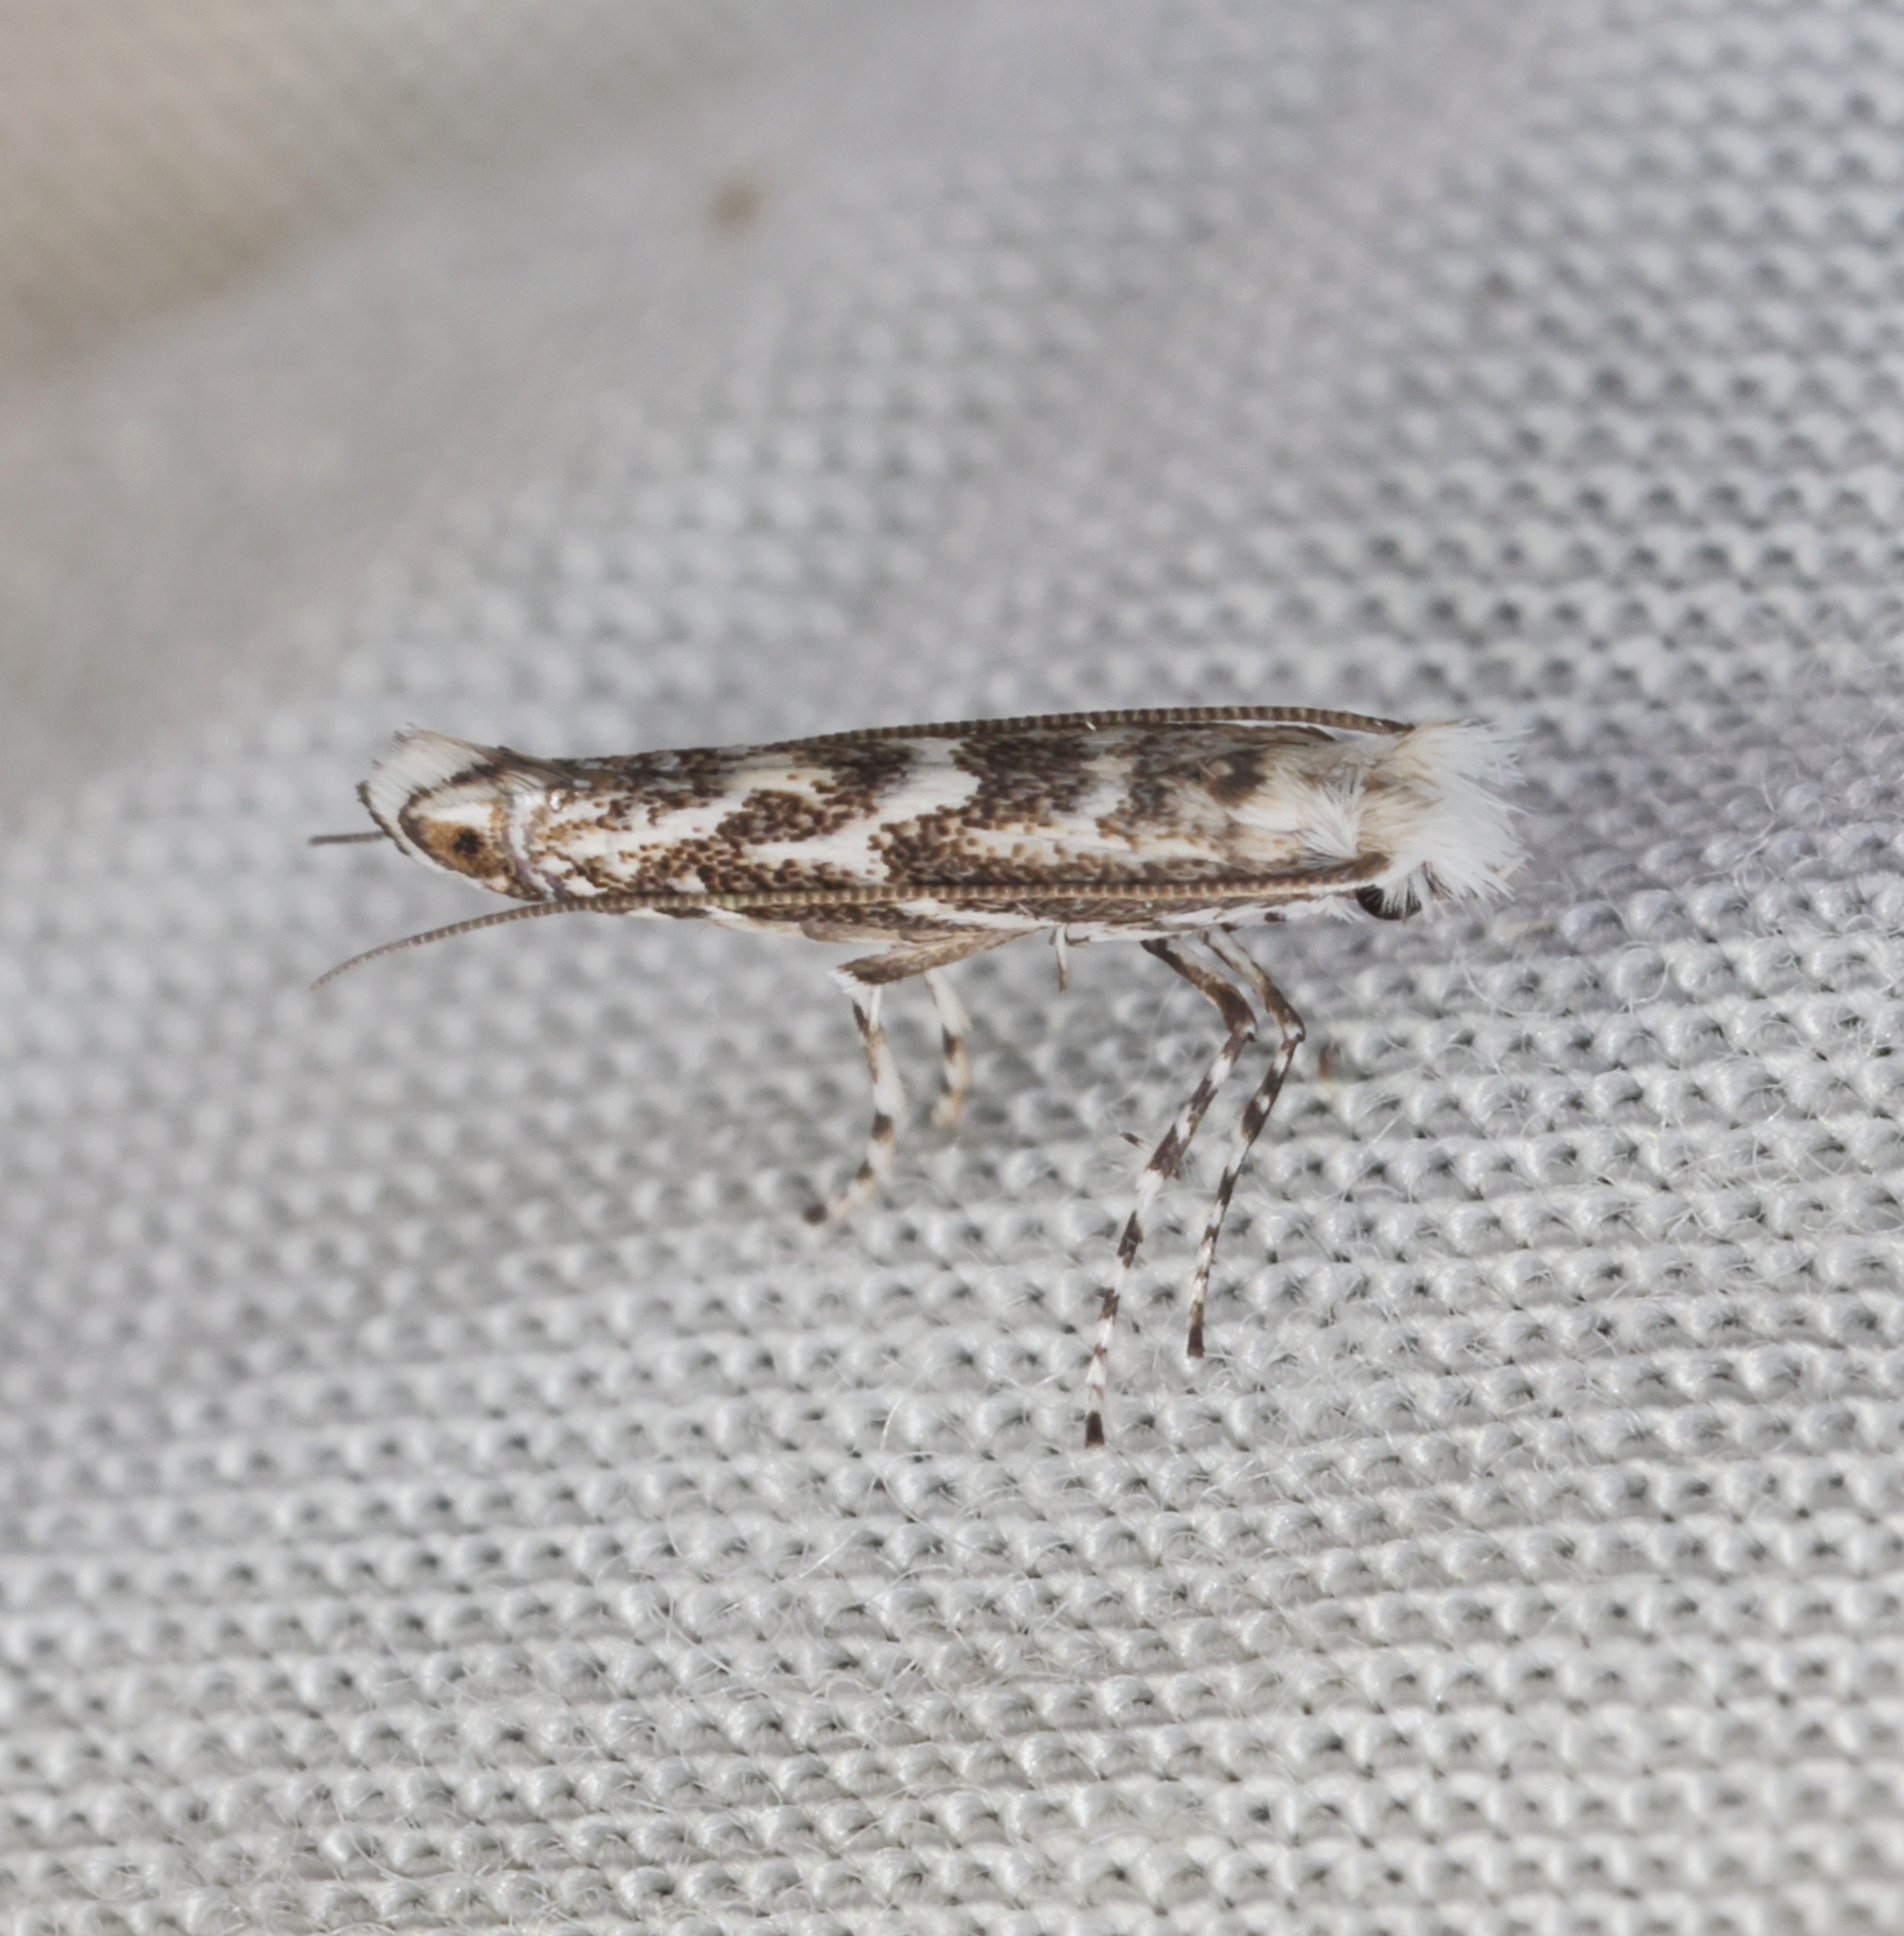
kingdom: Animalia
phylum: Arthropoda
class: Insecta
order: Lepidoptera
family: Gracillariidae
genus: Epicephala
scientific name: Epicephala lanceolaria
